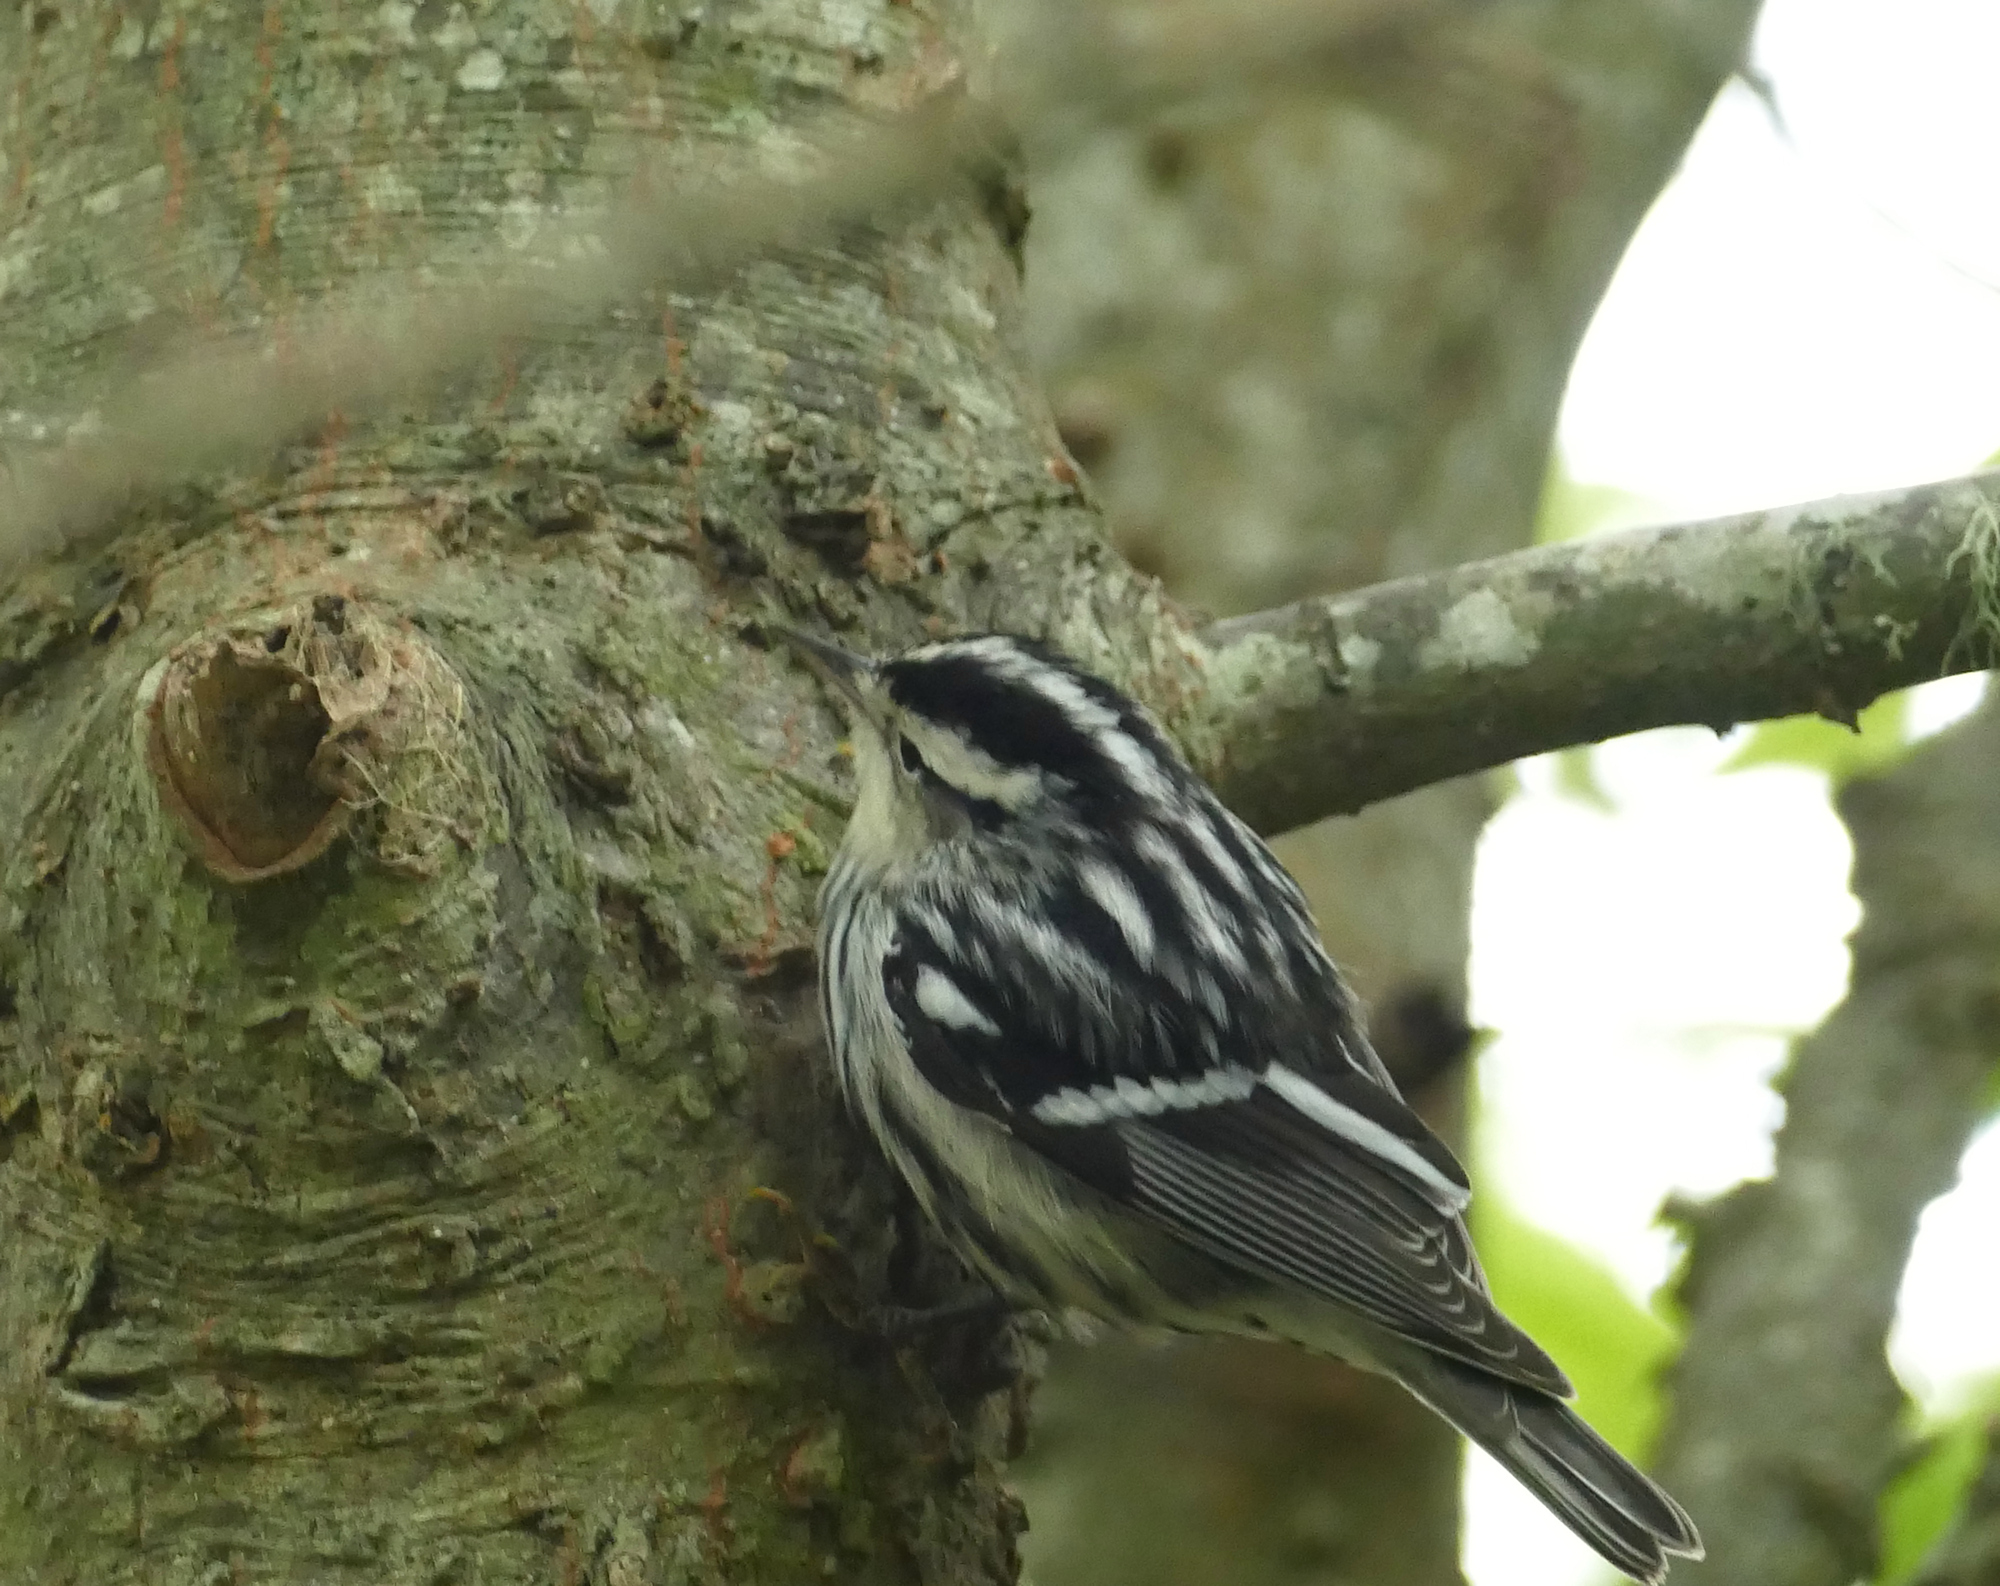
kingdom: Animalia
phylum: Chordata
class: Aves
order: Passeriformes
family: Parulidae
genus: Mniotilta
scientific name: Mniotilta varia
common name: Black-and-white warbler
